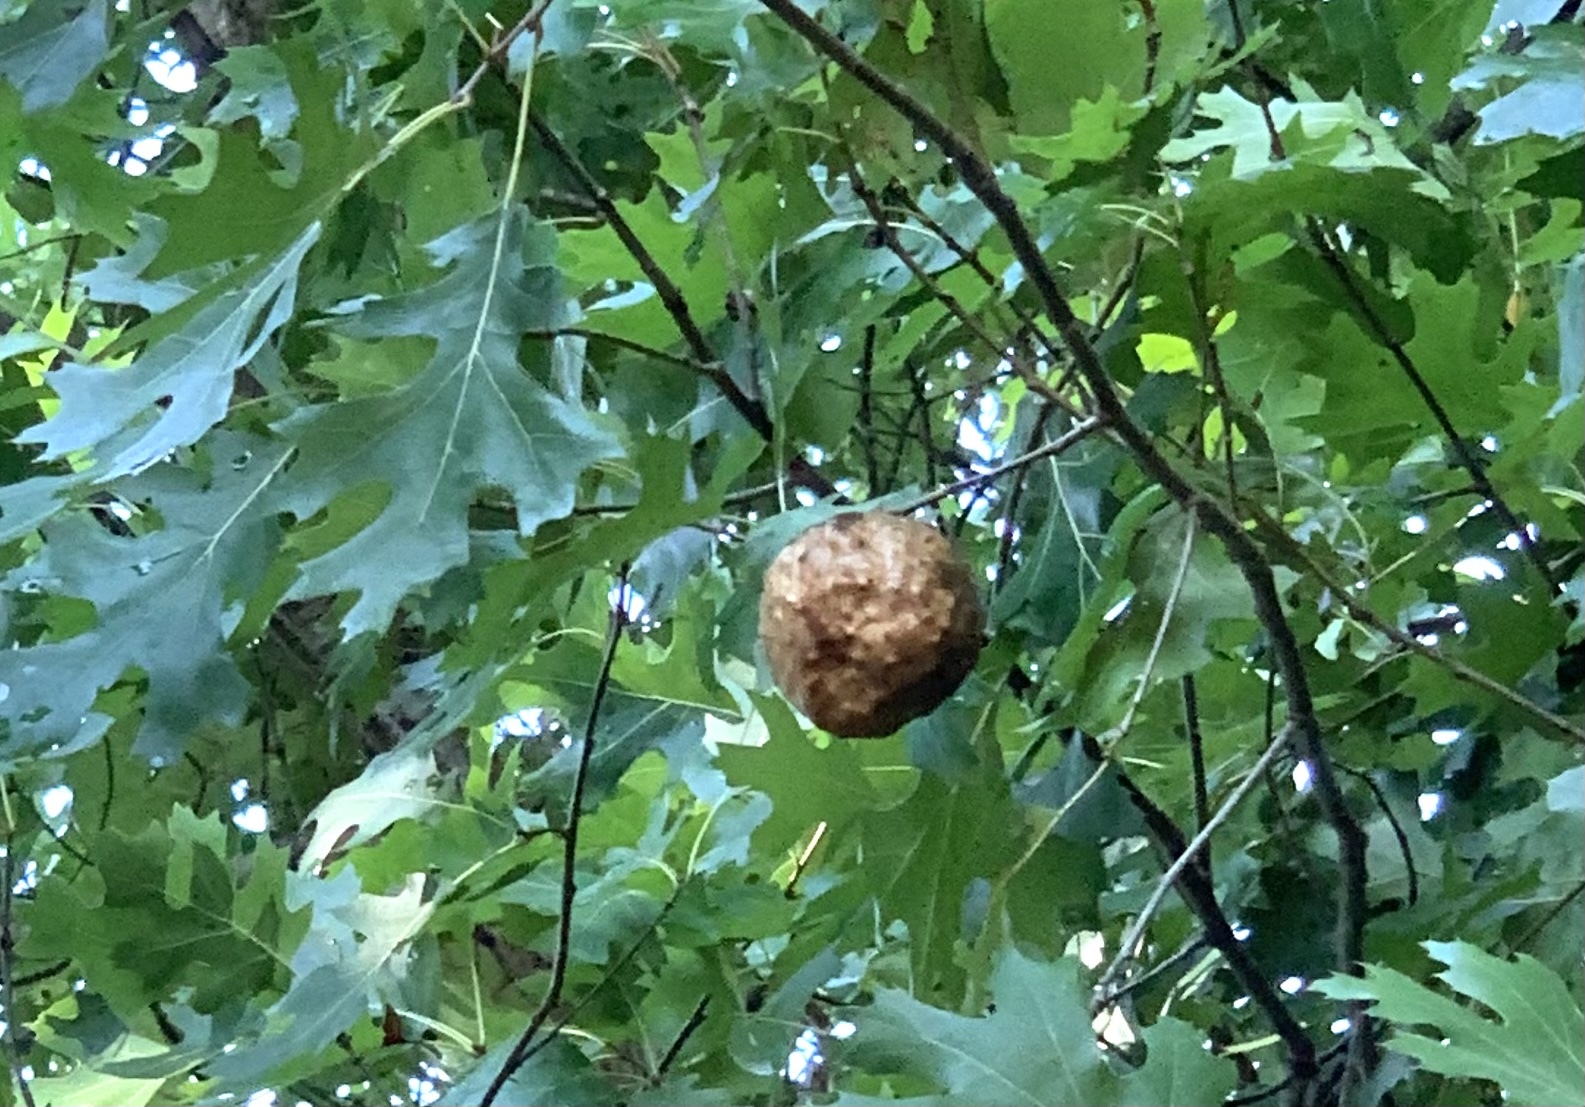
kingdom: Animalia
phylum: Arthropoda
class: Insecta
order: Hymenoptera
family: Cynipidae
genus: Amphibolips
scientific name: Amphibolips
